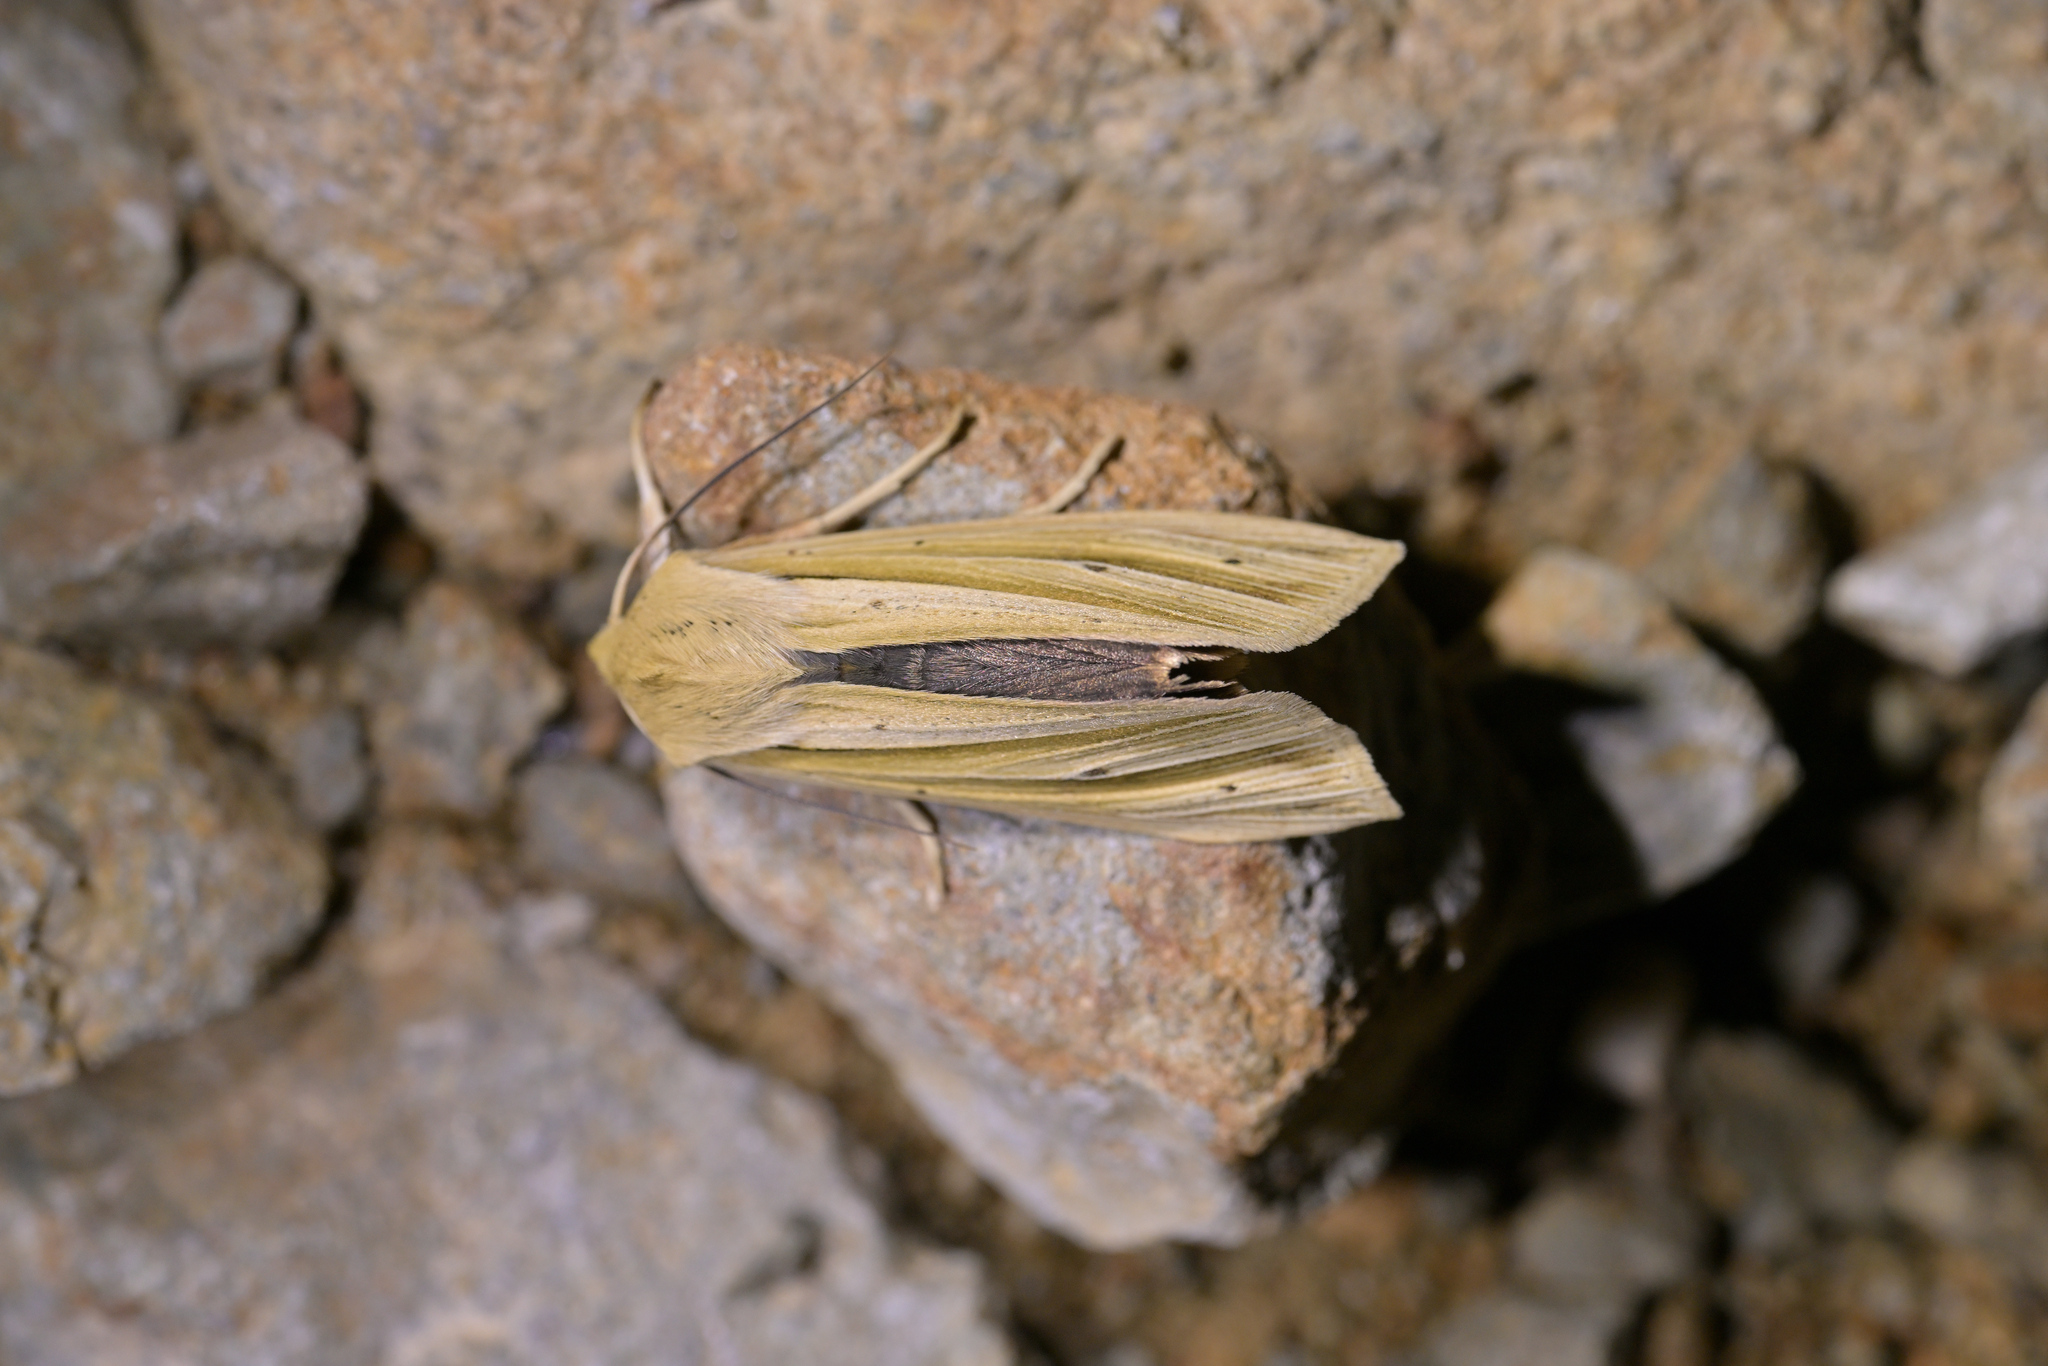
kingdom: Animalia
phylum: Arthropoda
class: Insecta
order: Lepidoptera
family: Noctuidae
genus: Ichneutica
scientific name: Ichneutica sulcana
